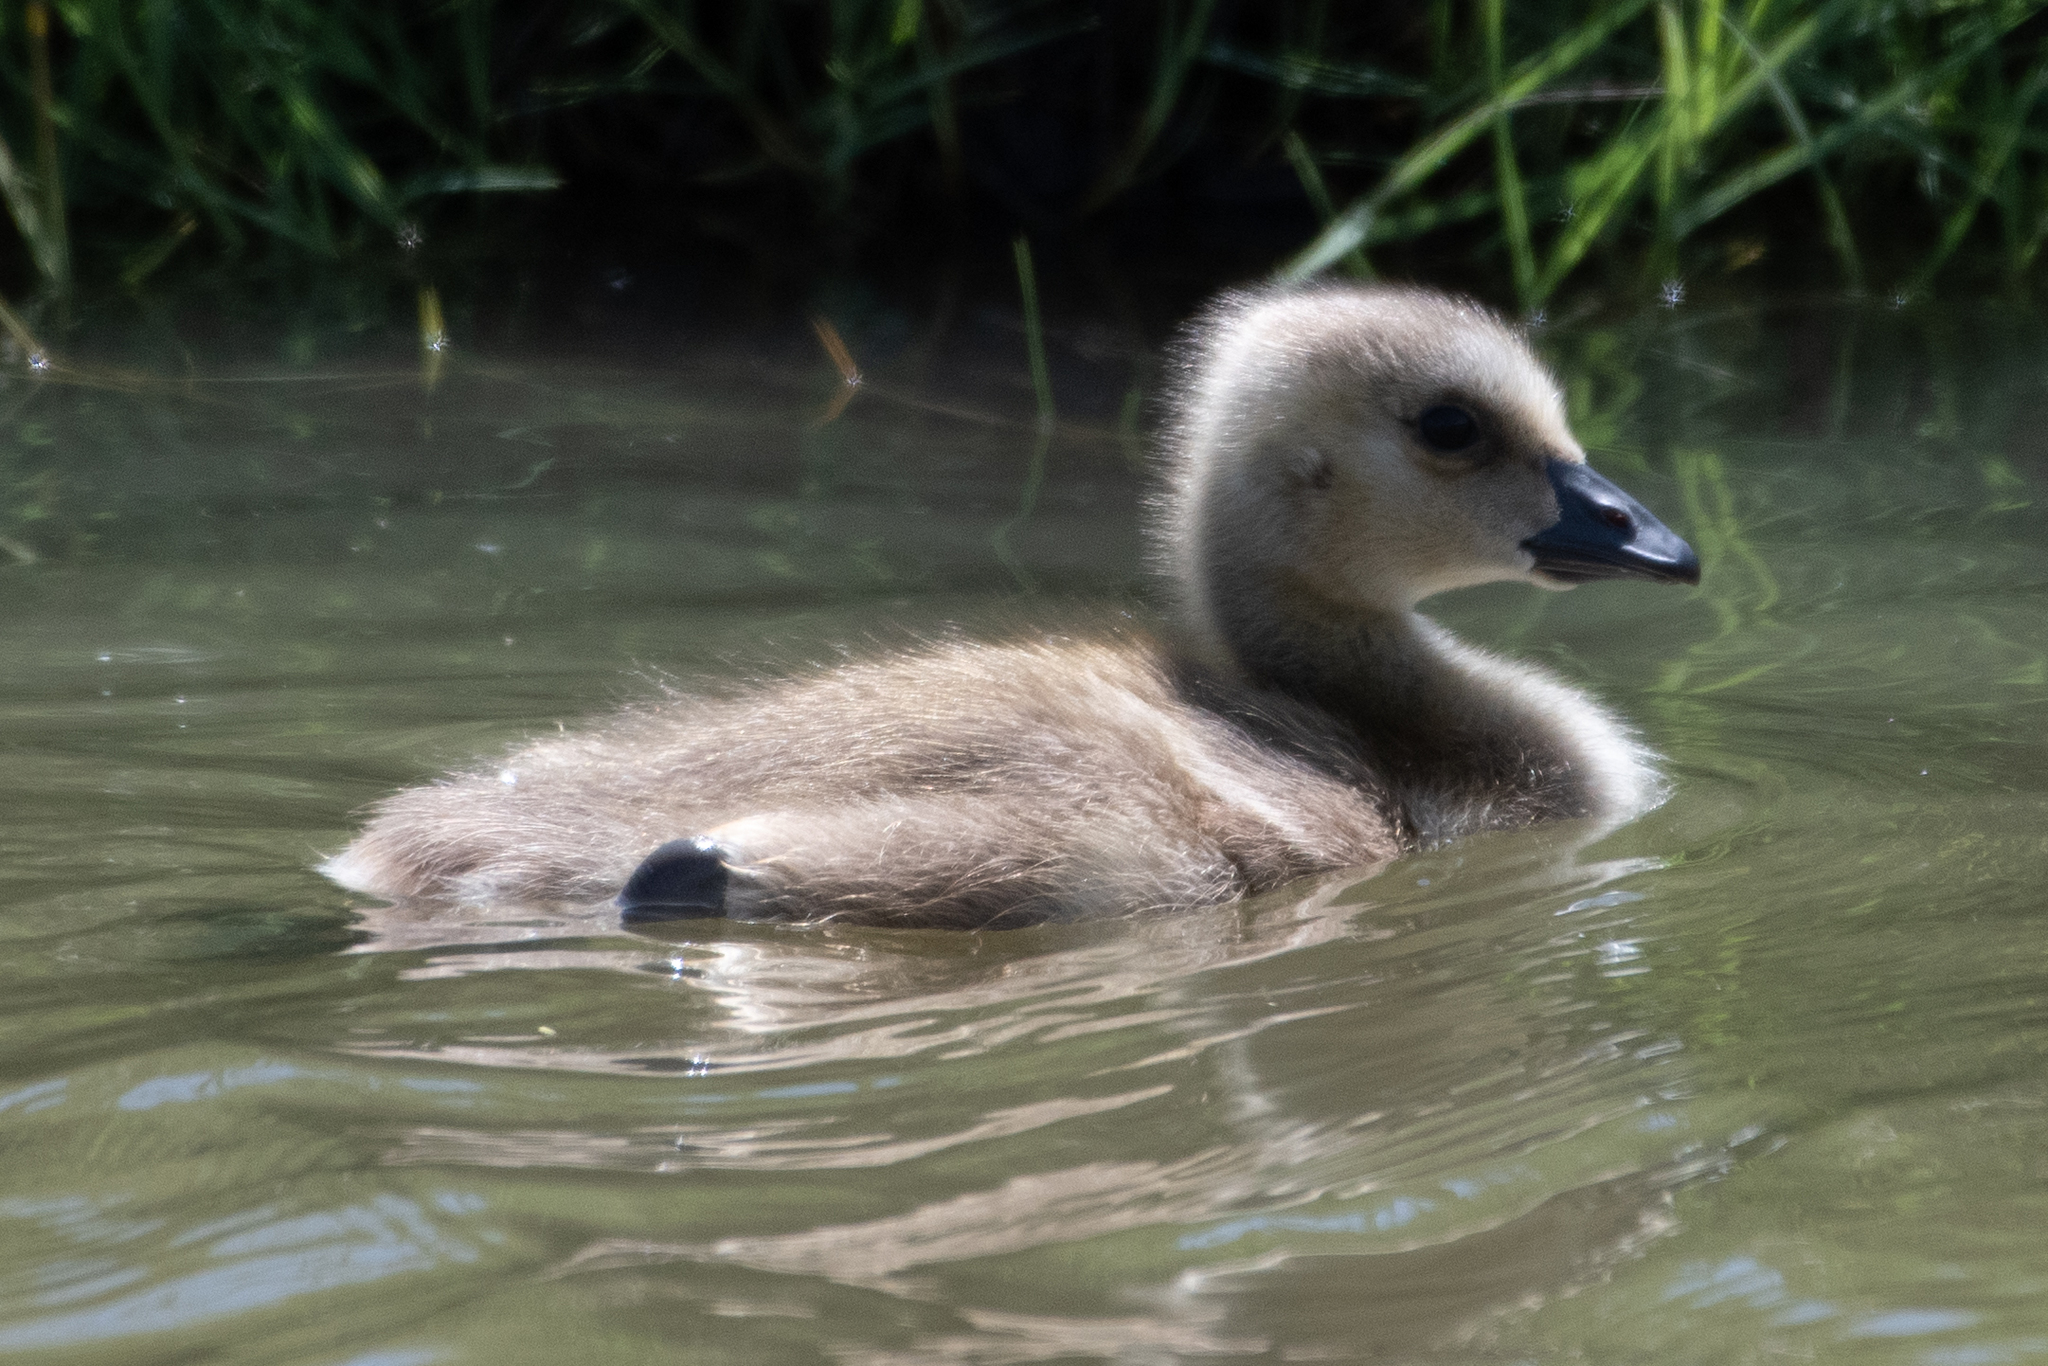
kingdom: Animalia
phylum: Chordata
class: Aves
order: Anseriformes
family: Anatidae
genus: Branta
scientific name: Branta canadensis
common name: Canada goose
